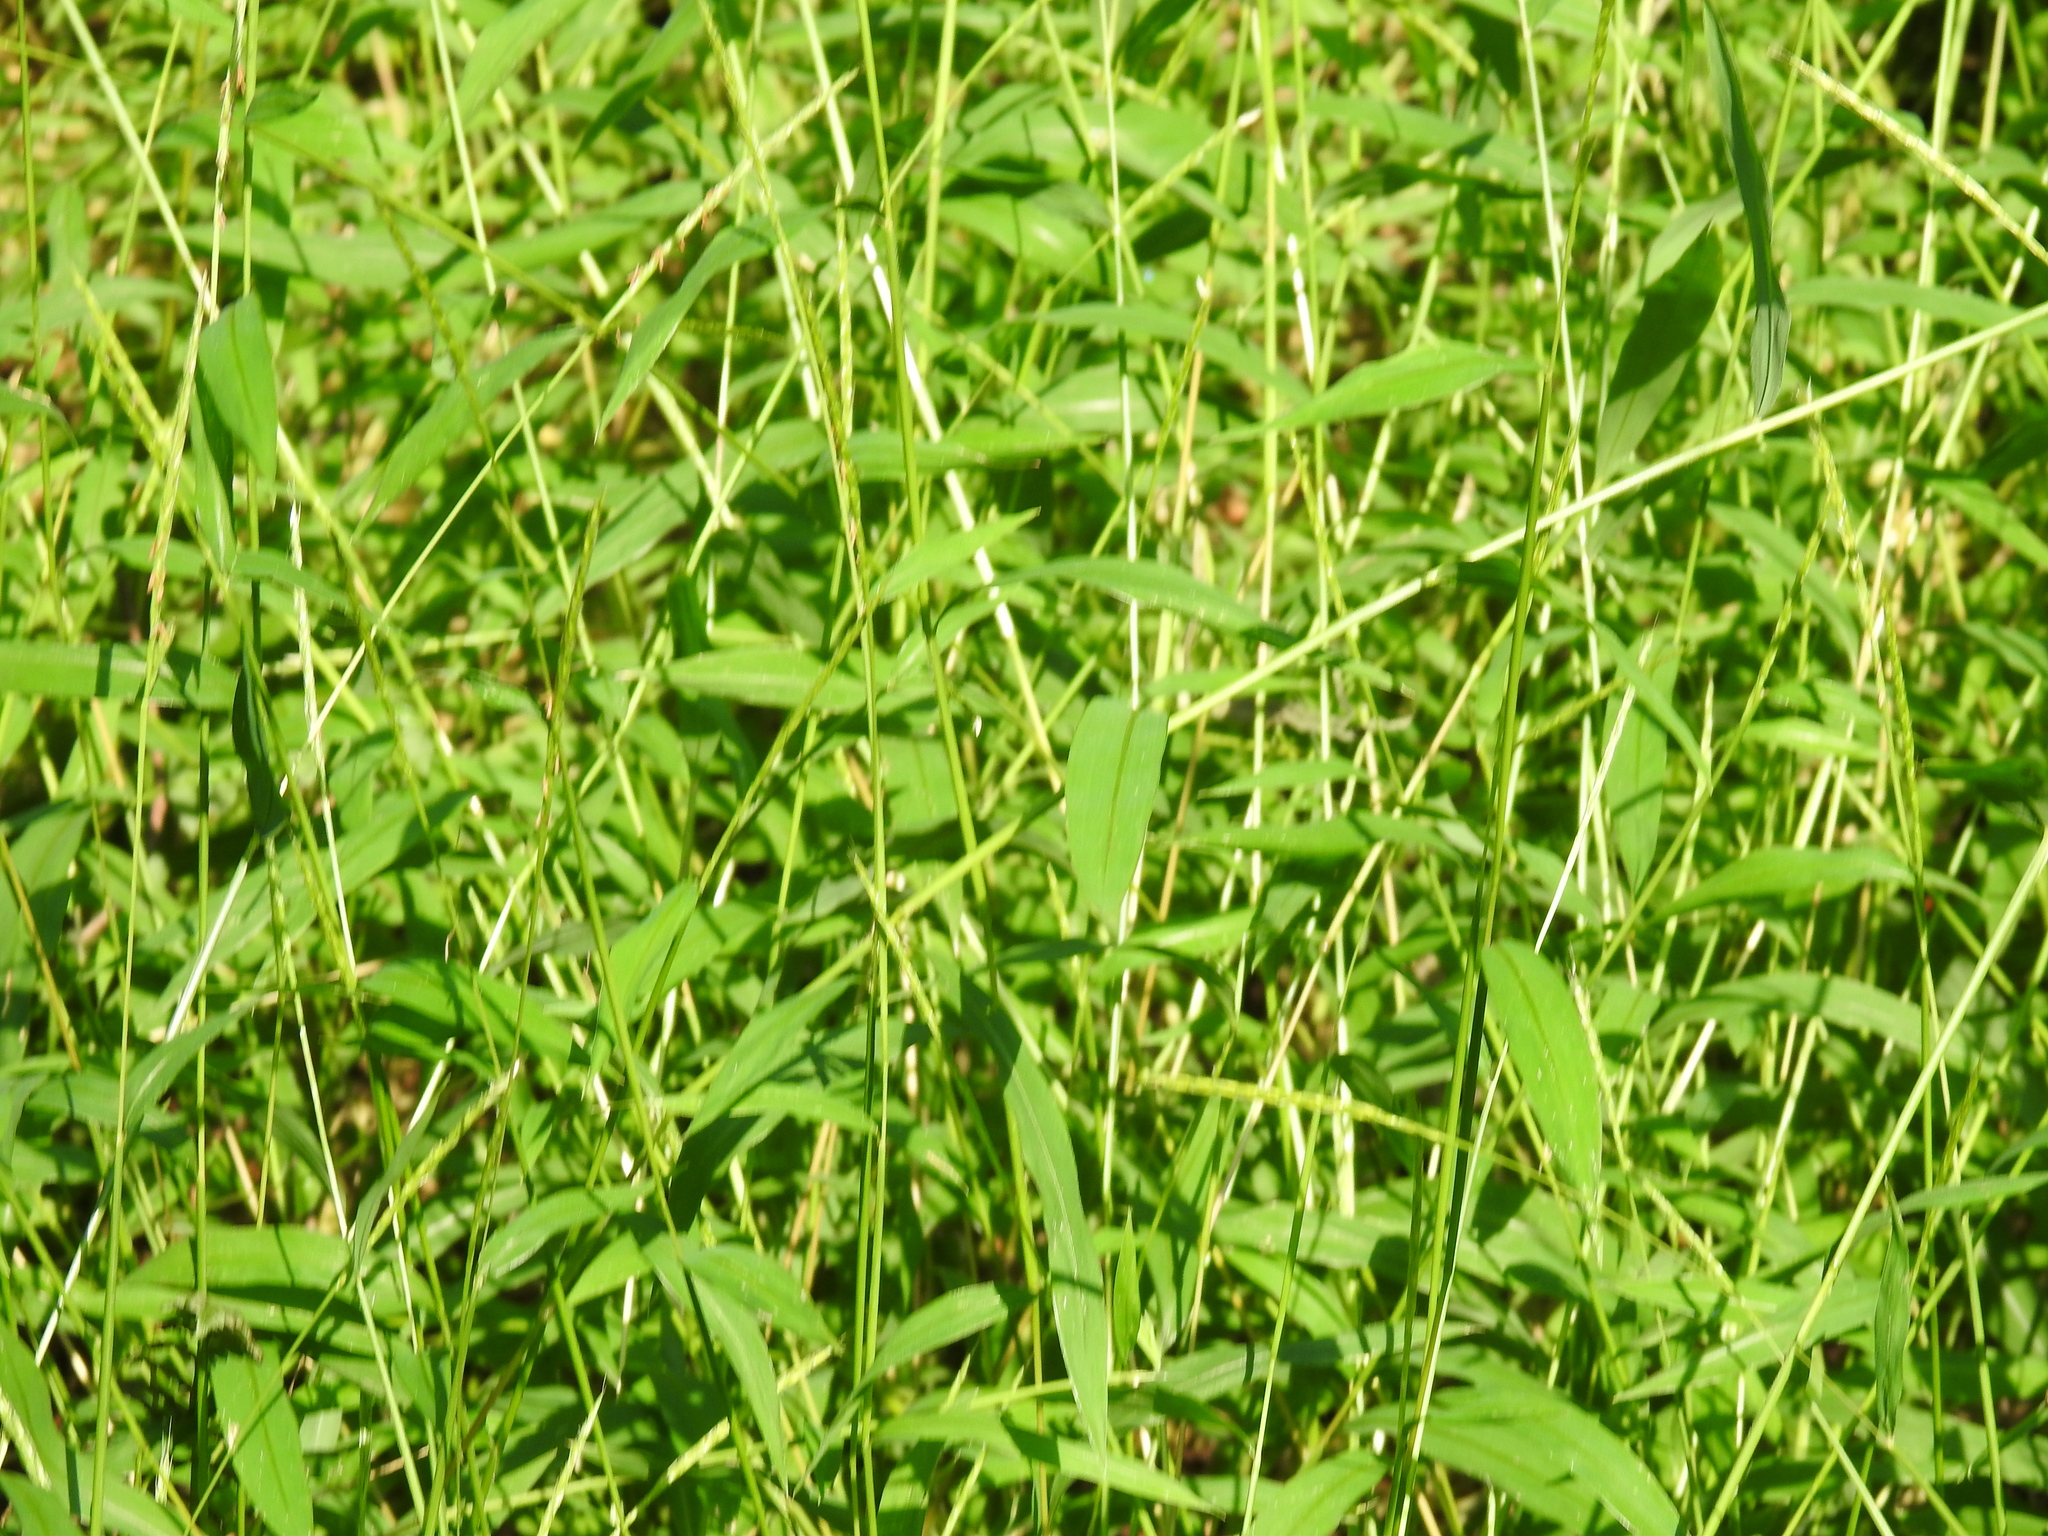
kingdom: Plantae
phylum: Tracheophyta
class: Liliopsida
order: Poales
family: Poaceae
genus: Microstegium
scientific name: Microstegium vimineum
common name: Japanese stiltgrass
